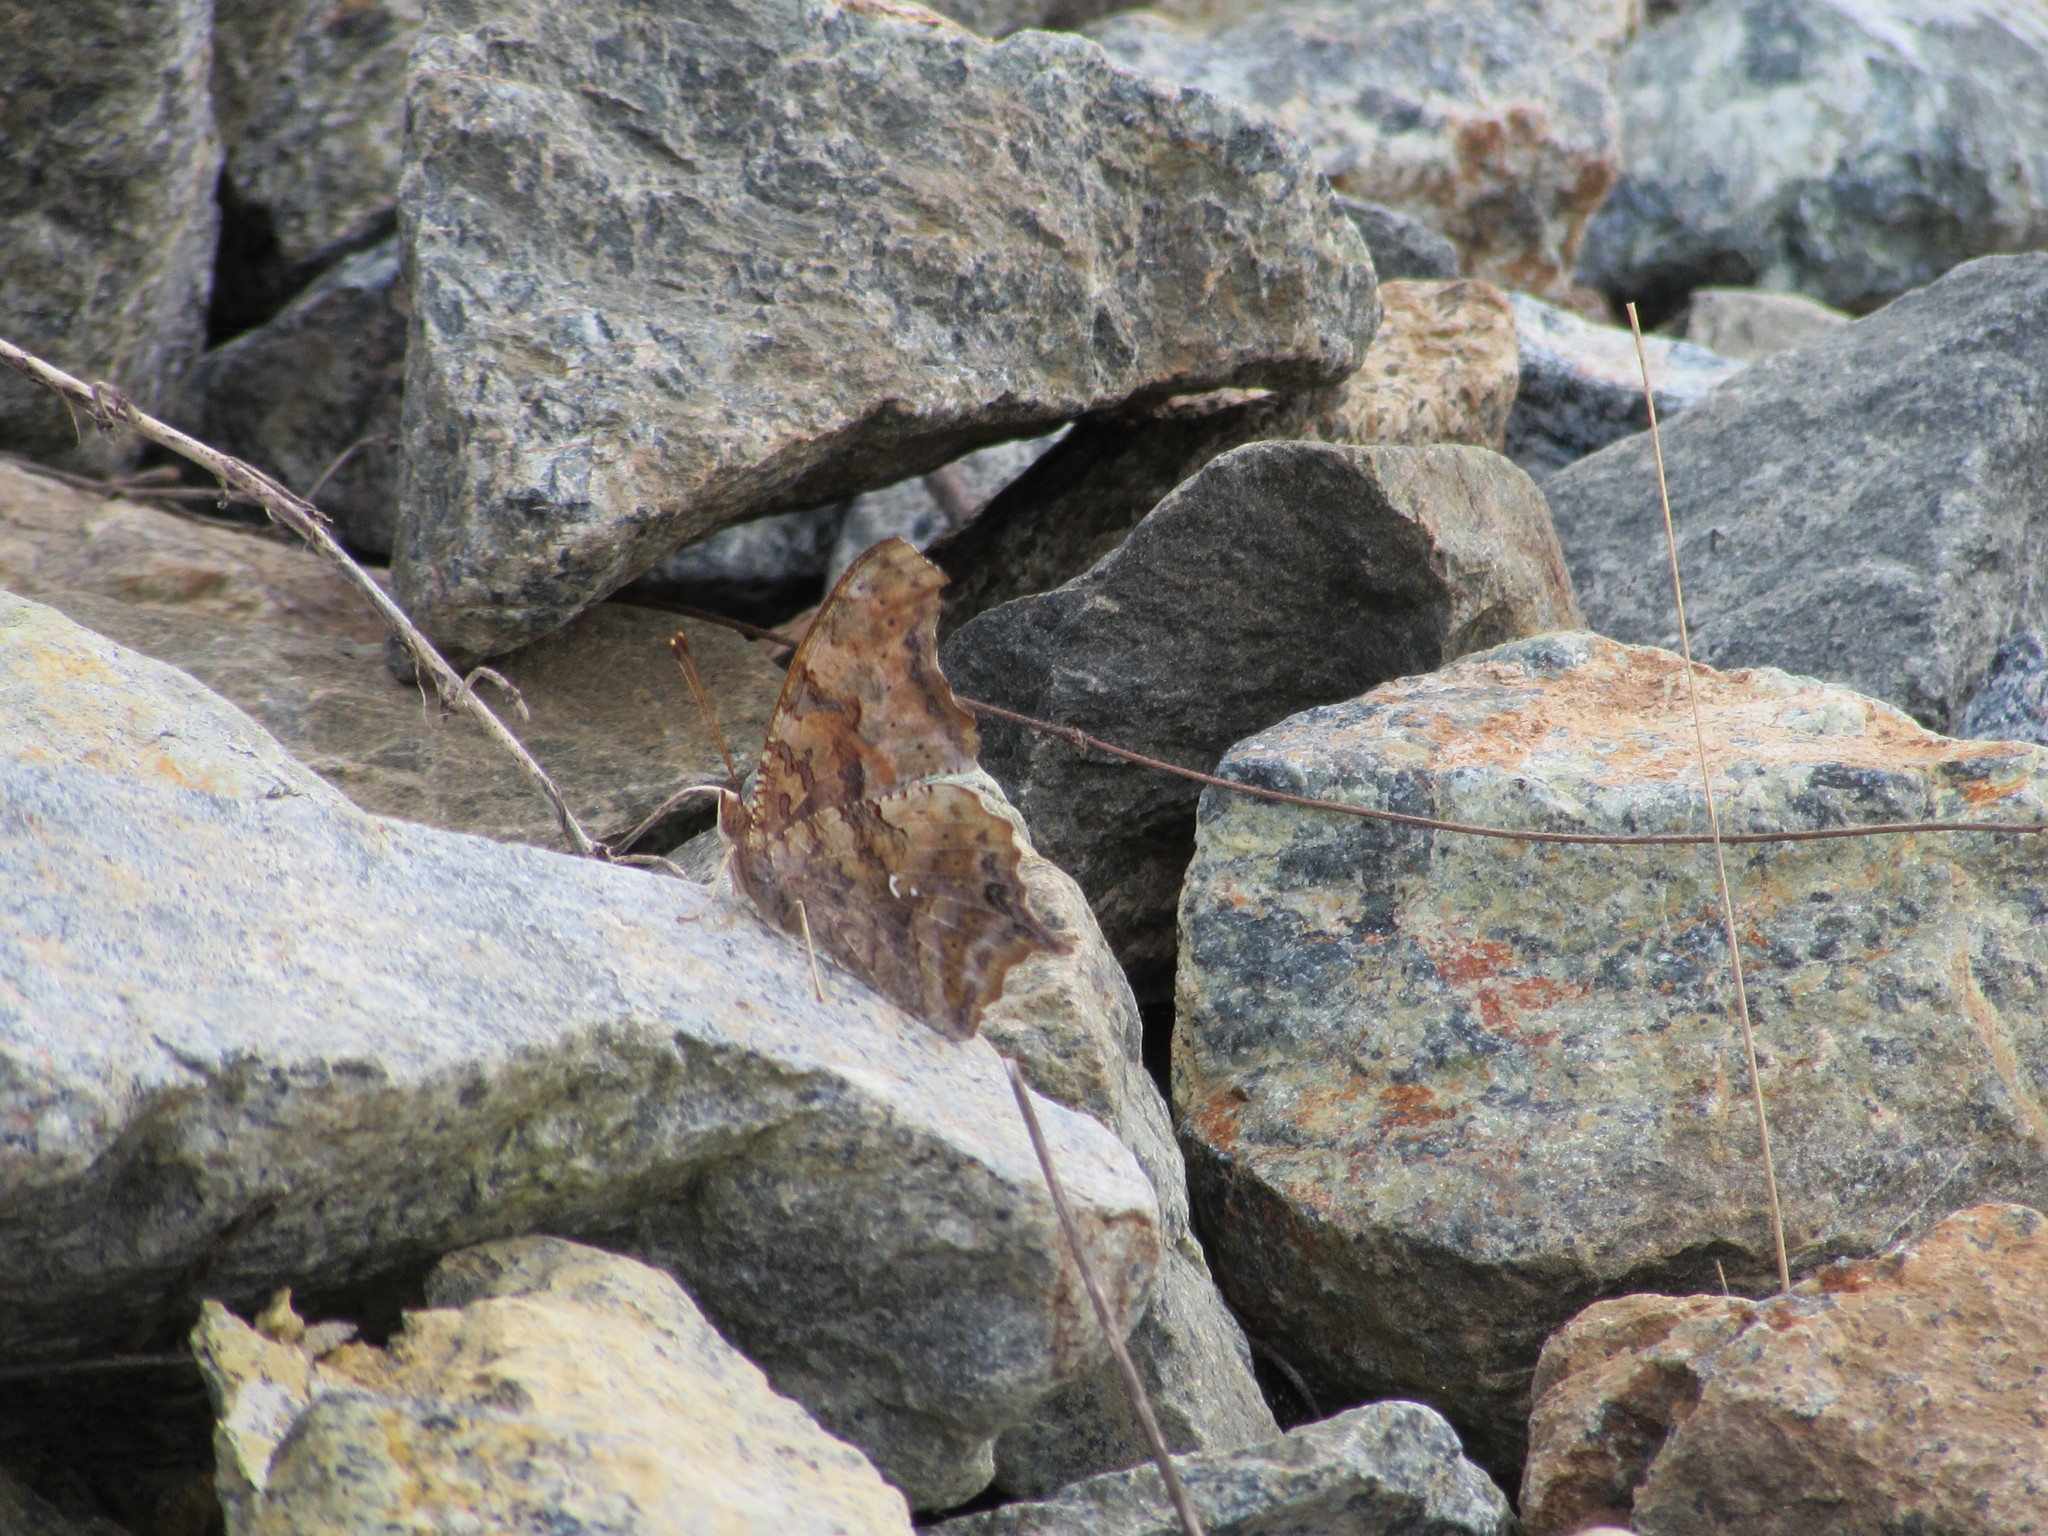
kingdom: Animalia
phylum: Arthropoda
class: Insecta
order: Lepidoptera
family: Nymphalidae
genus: Polygonia
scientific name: Polygonia interrogationis
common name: Question mark
